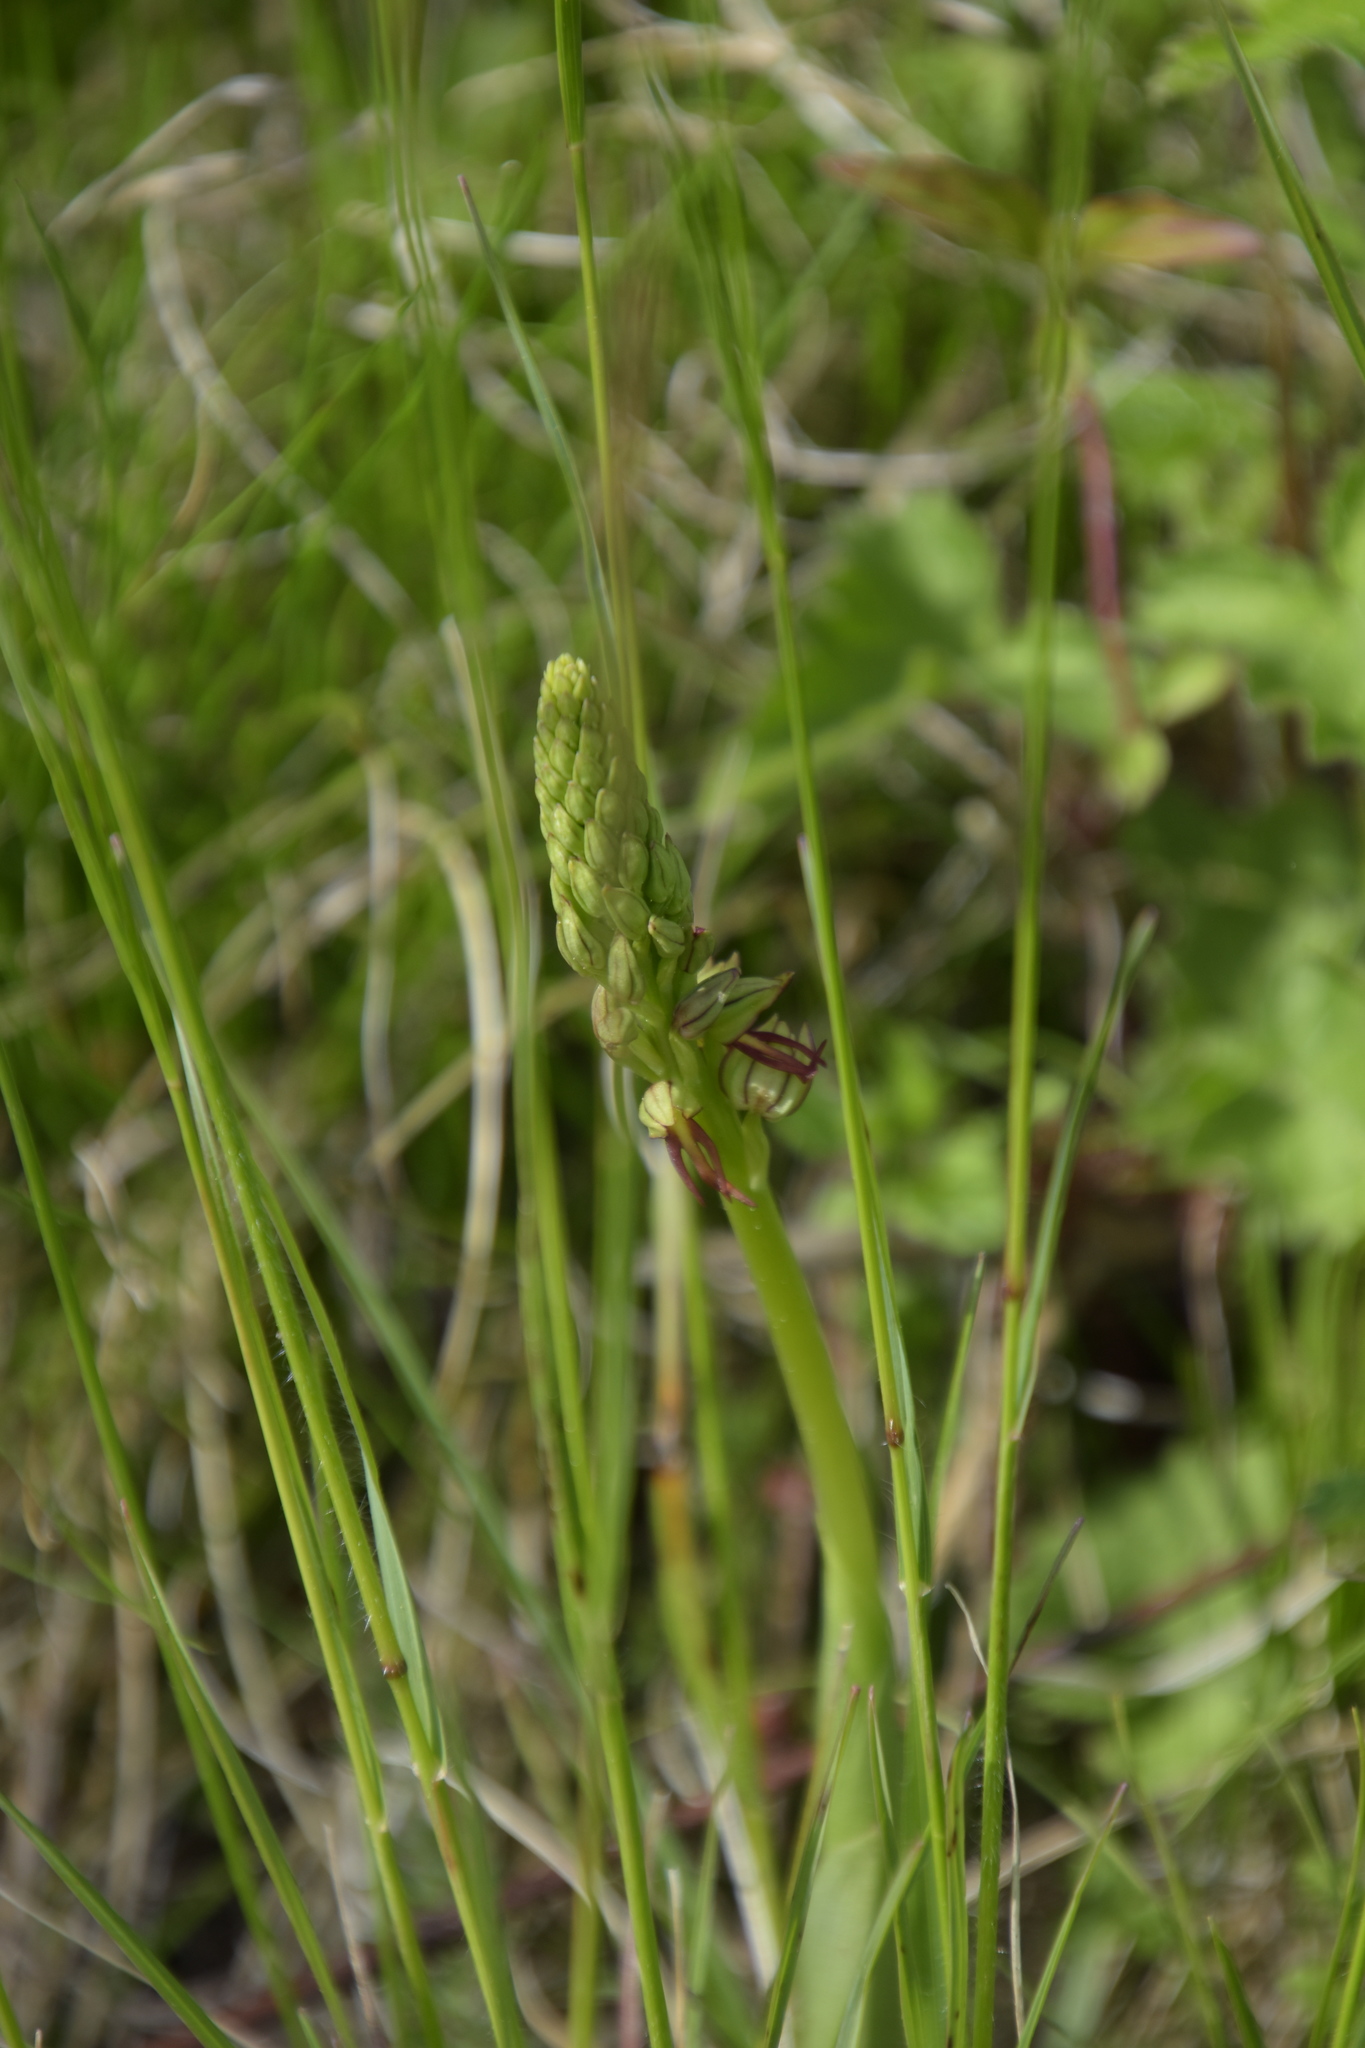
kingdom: Plantae
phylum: Tracheophyta
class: Liliopsida
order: Asparagales
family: Orchidaceae
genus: Orchis
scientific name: Orchis anthropophora
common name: Man orchid
